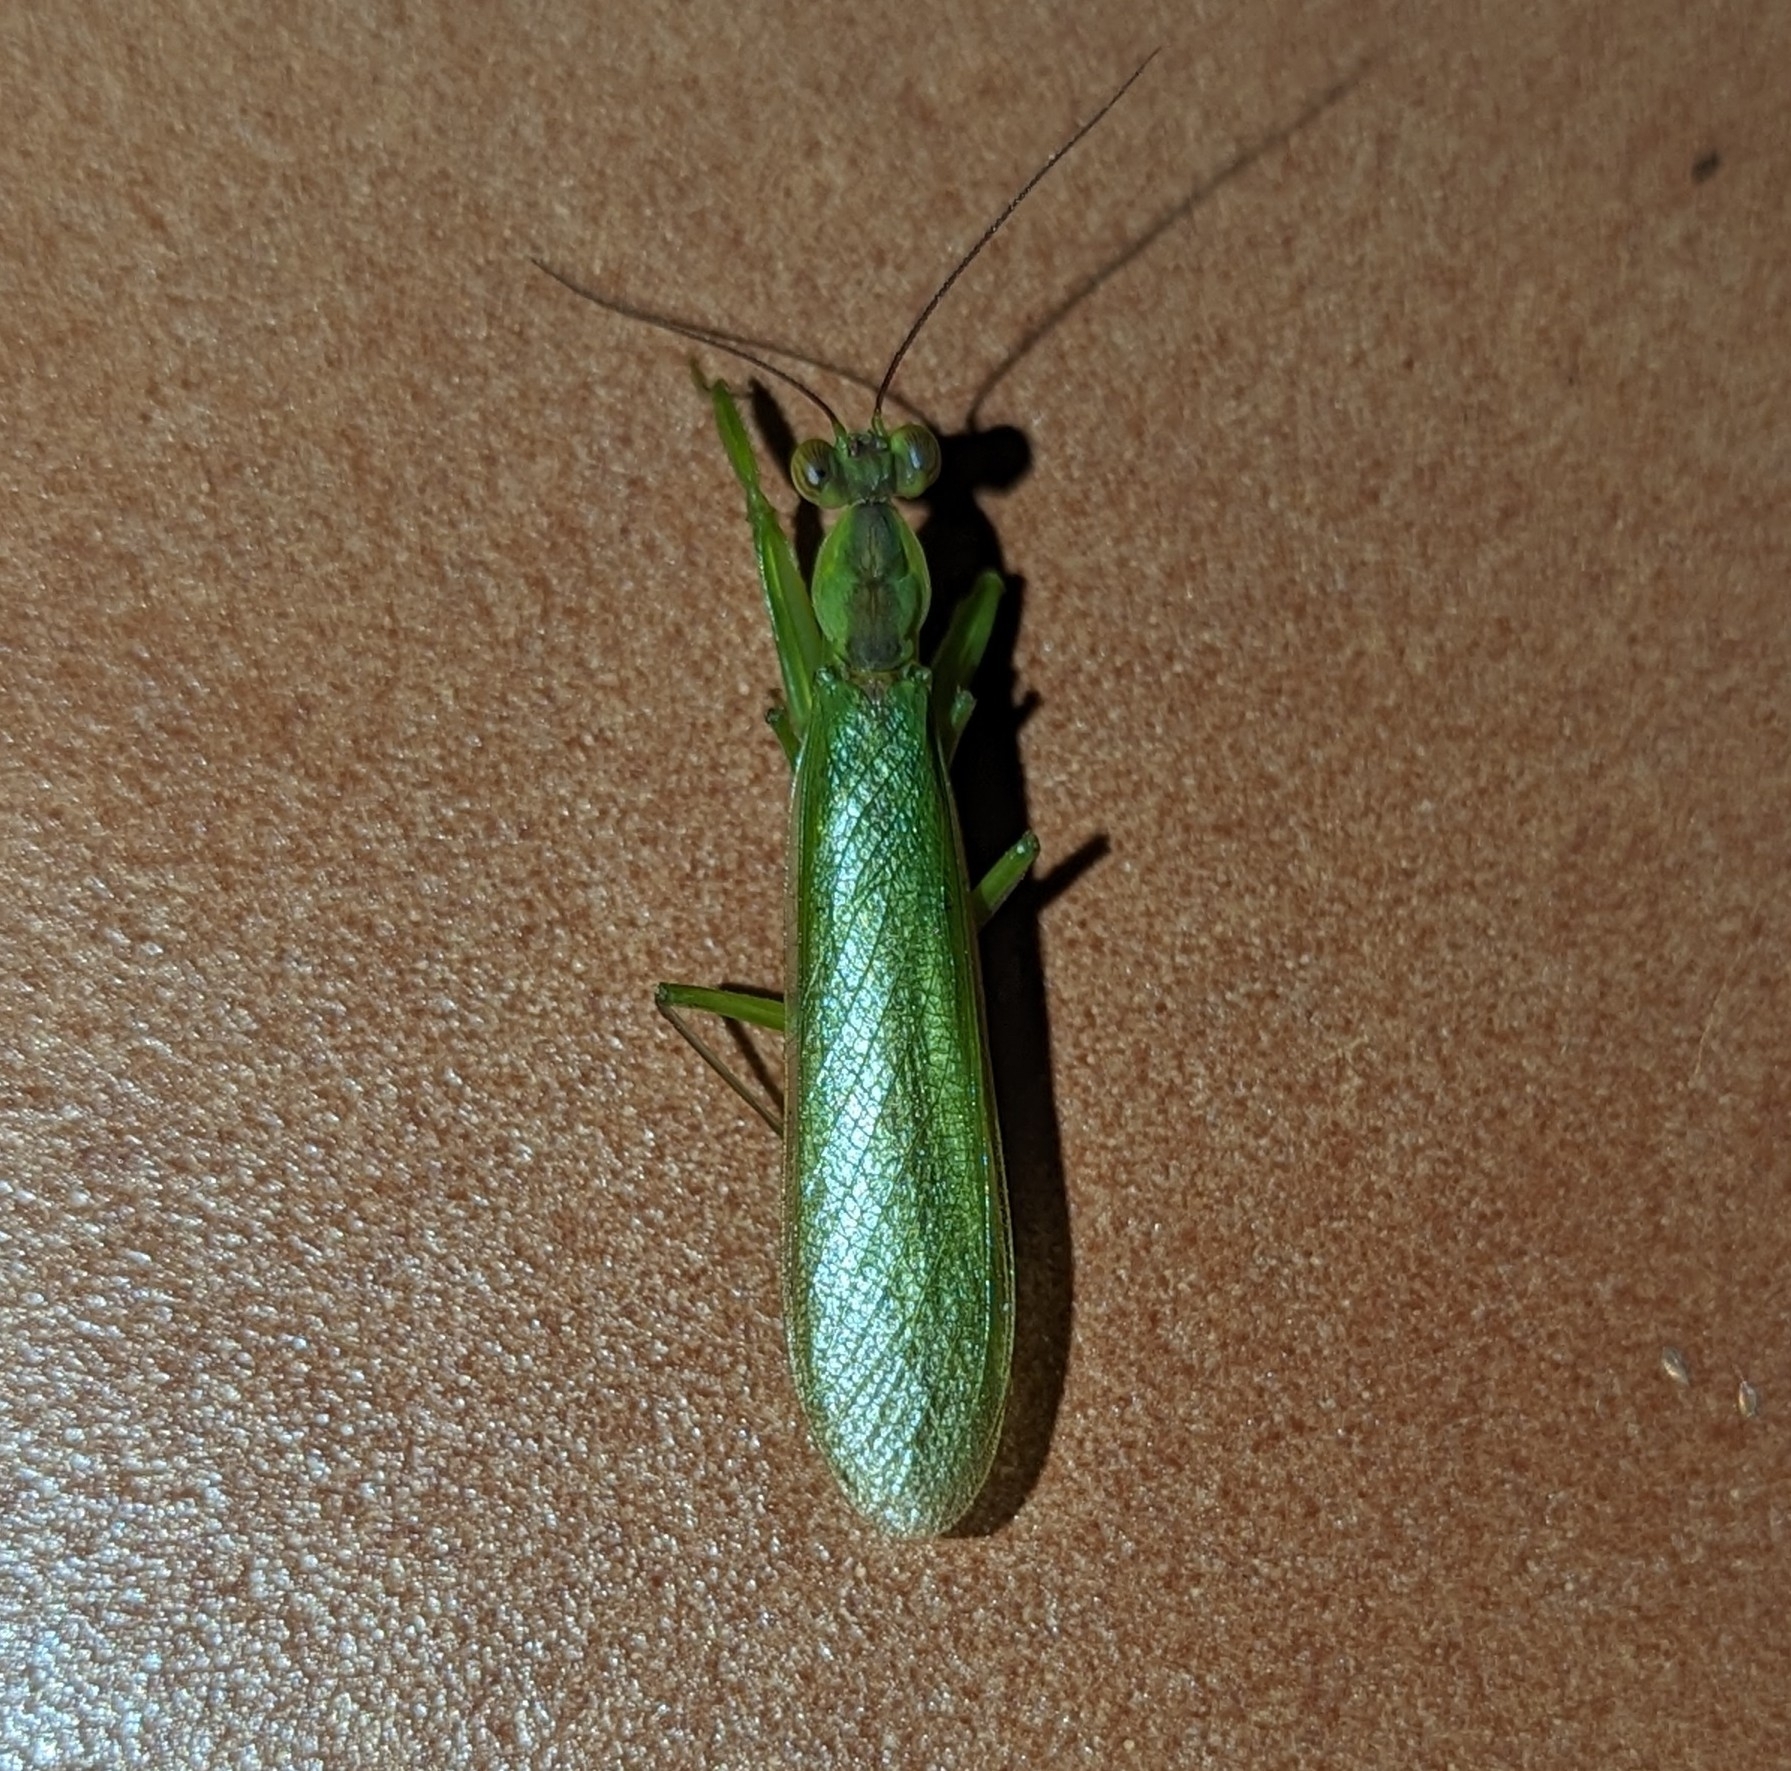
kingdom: Animalia
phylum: Arthropoda
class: Insecta
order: Mantodea
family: Hymenopodidae
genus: Chloroharpax
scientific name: Chloroharpax modesta
